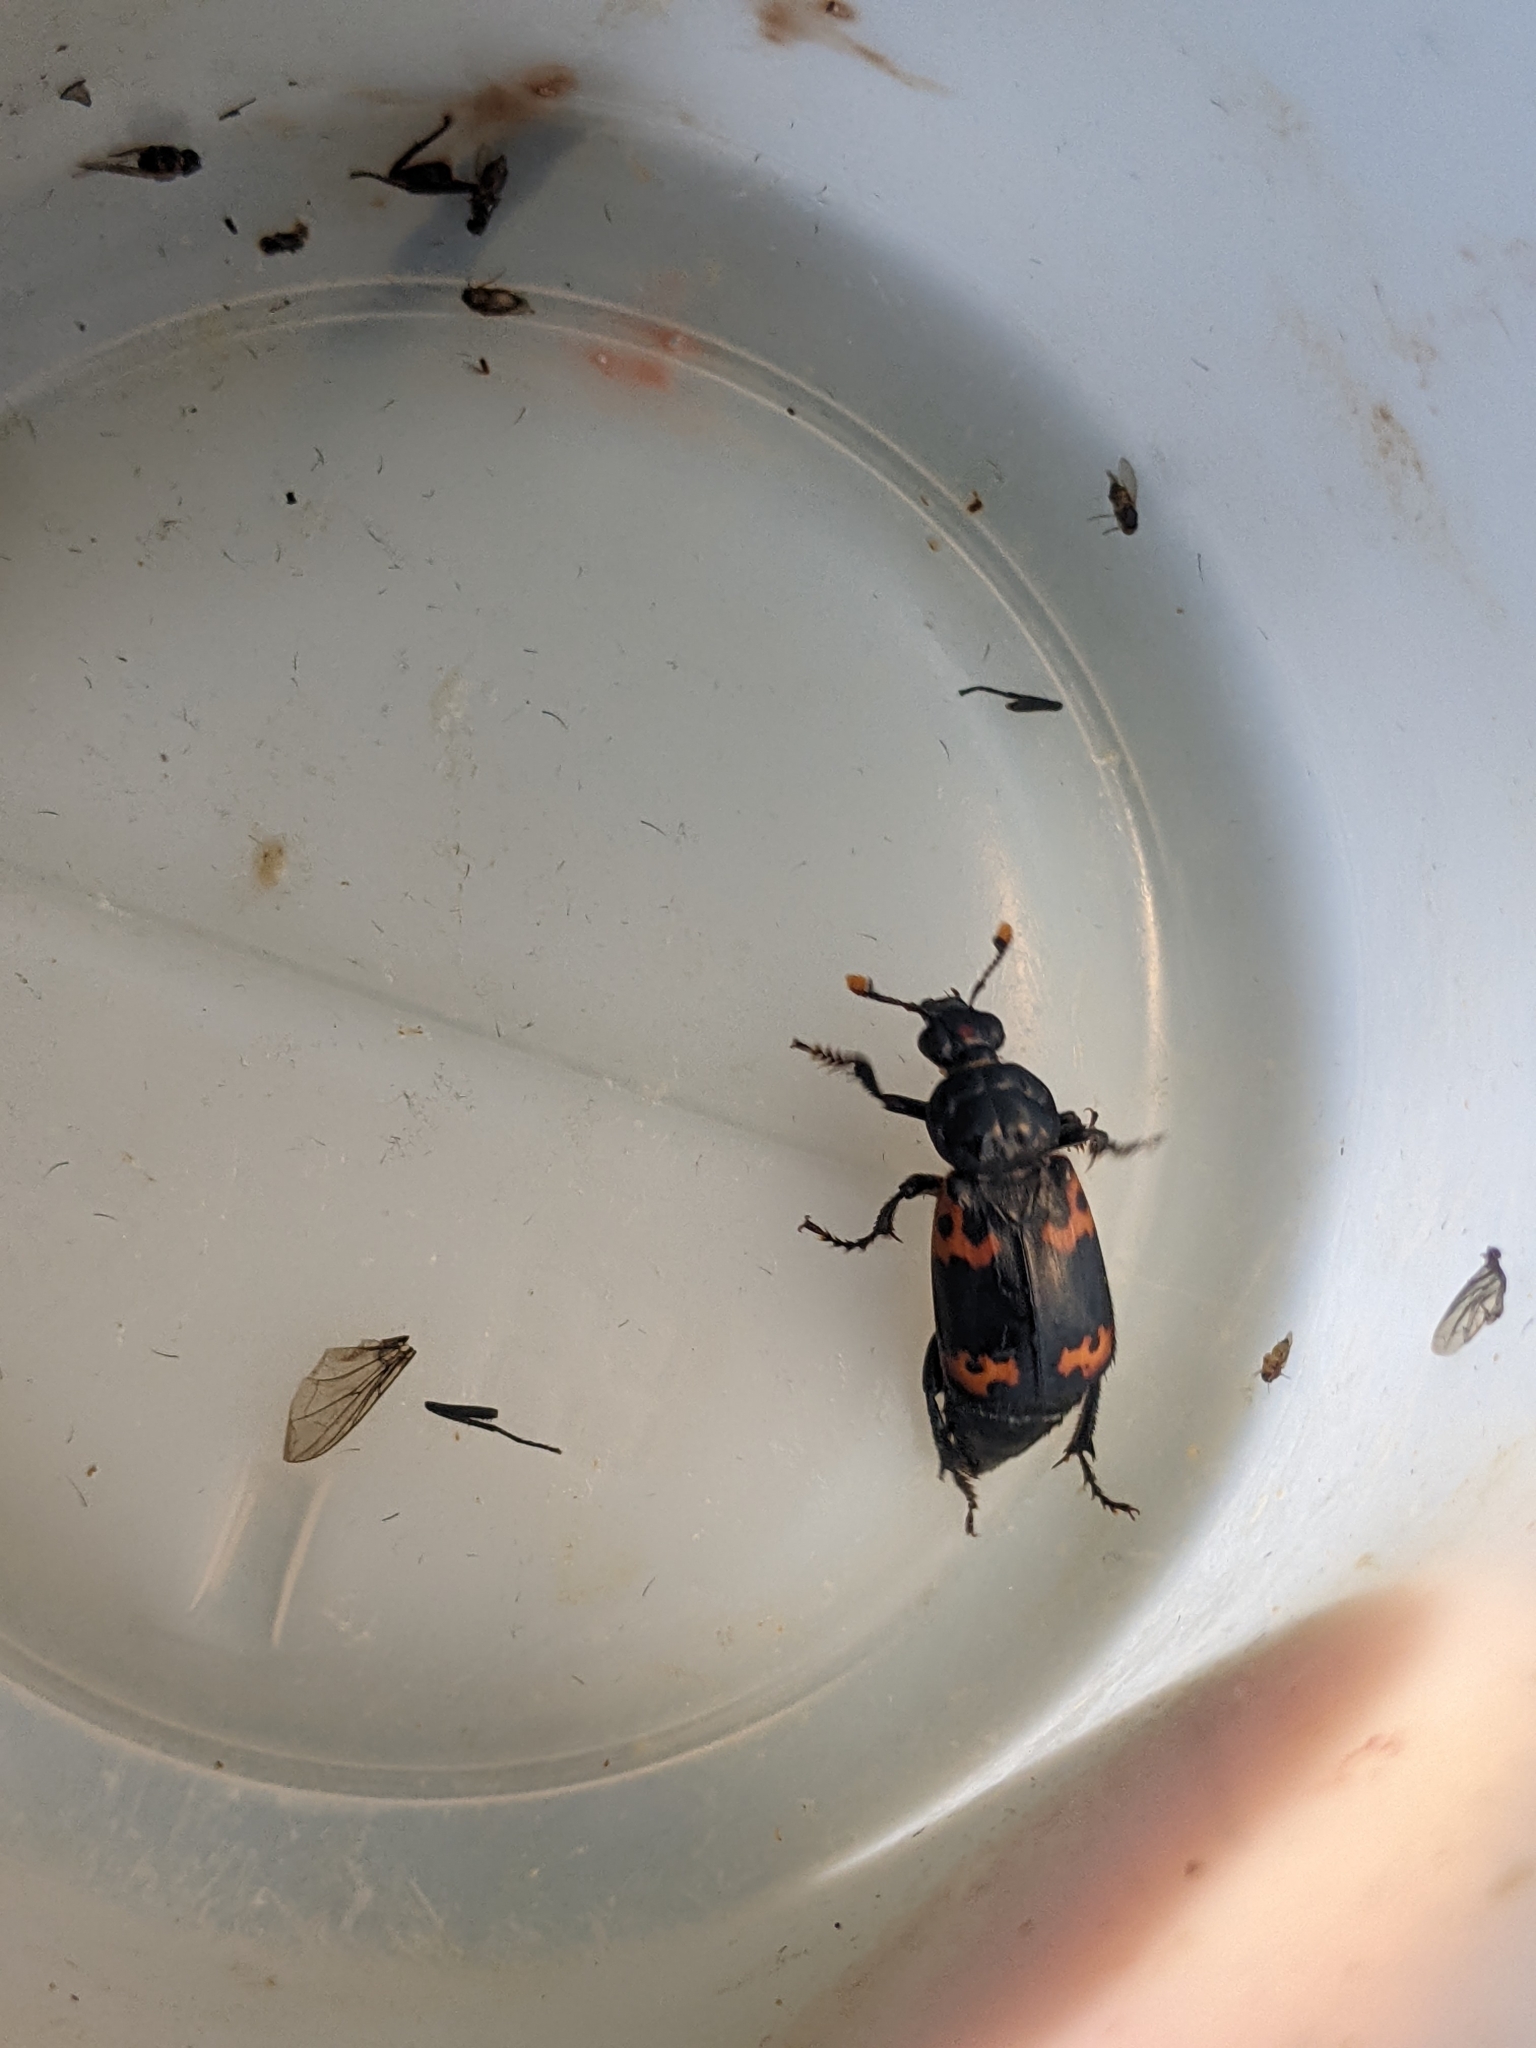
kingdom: Animalia
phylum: Arthropoda
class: Insecta
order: Coleoptera
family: Staphylinidae
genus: Nicrophorus
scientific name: Nicrophorus nepalensis
